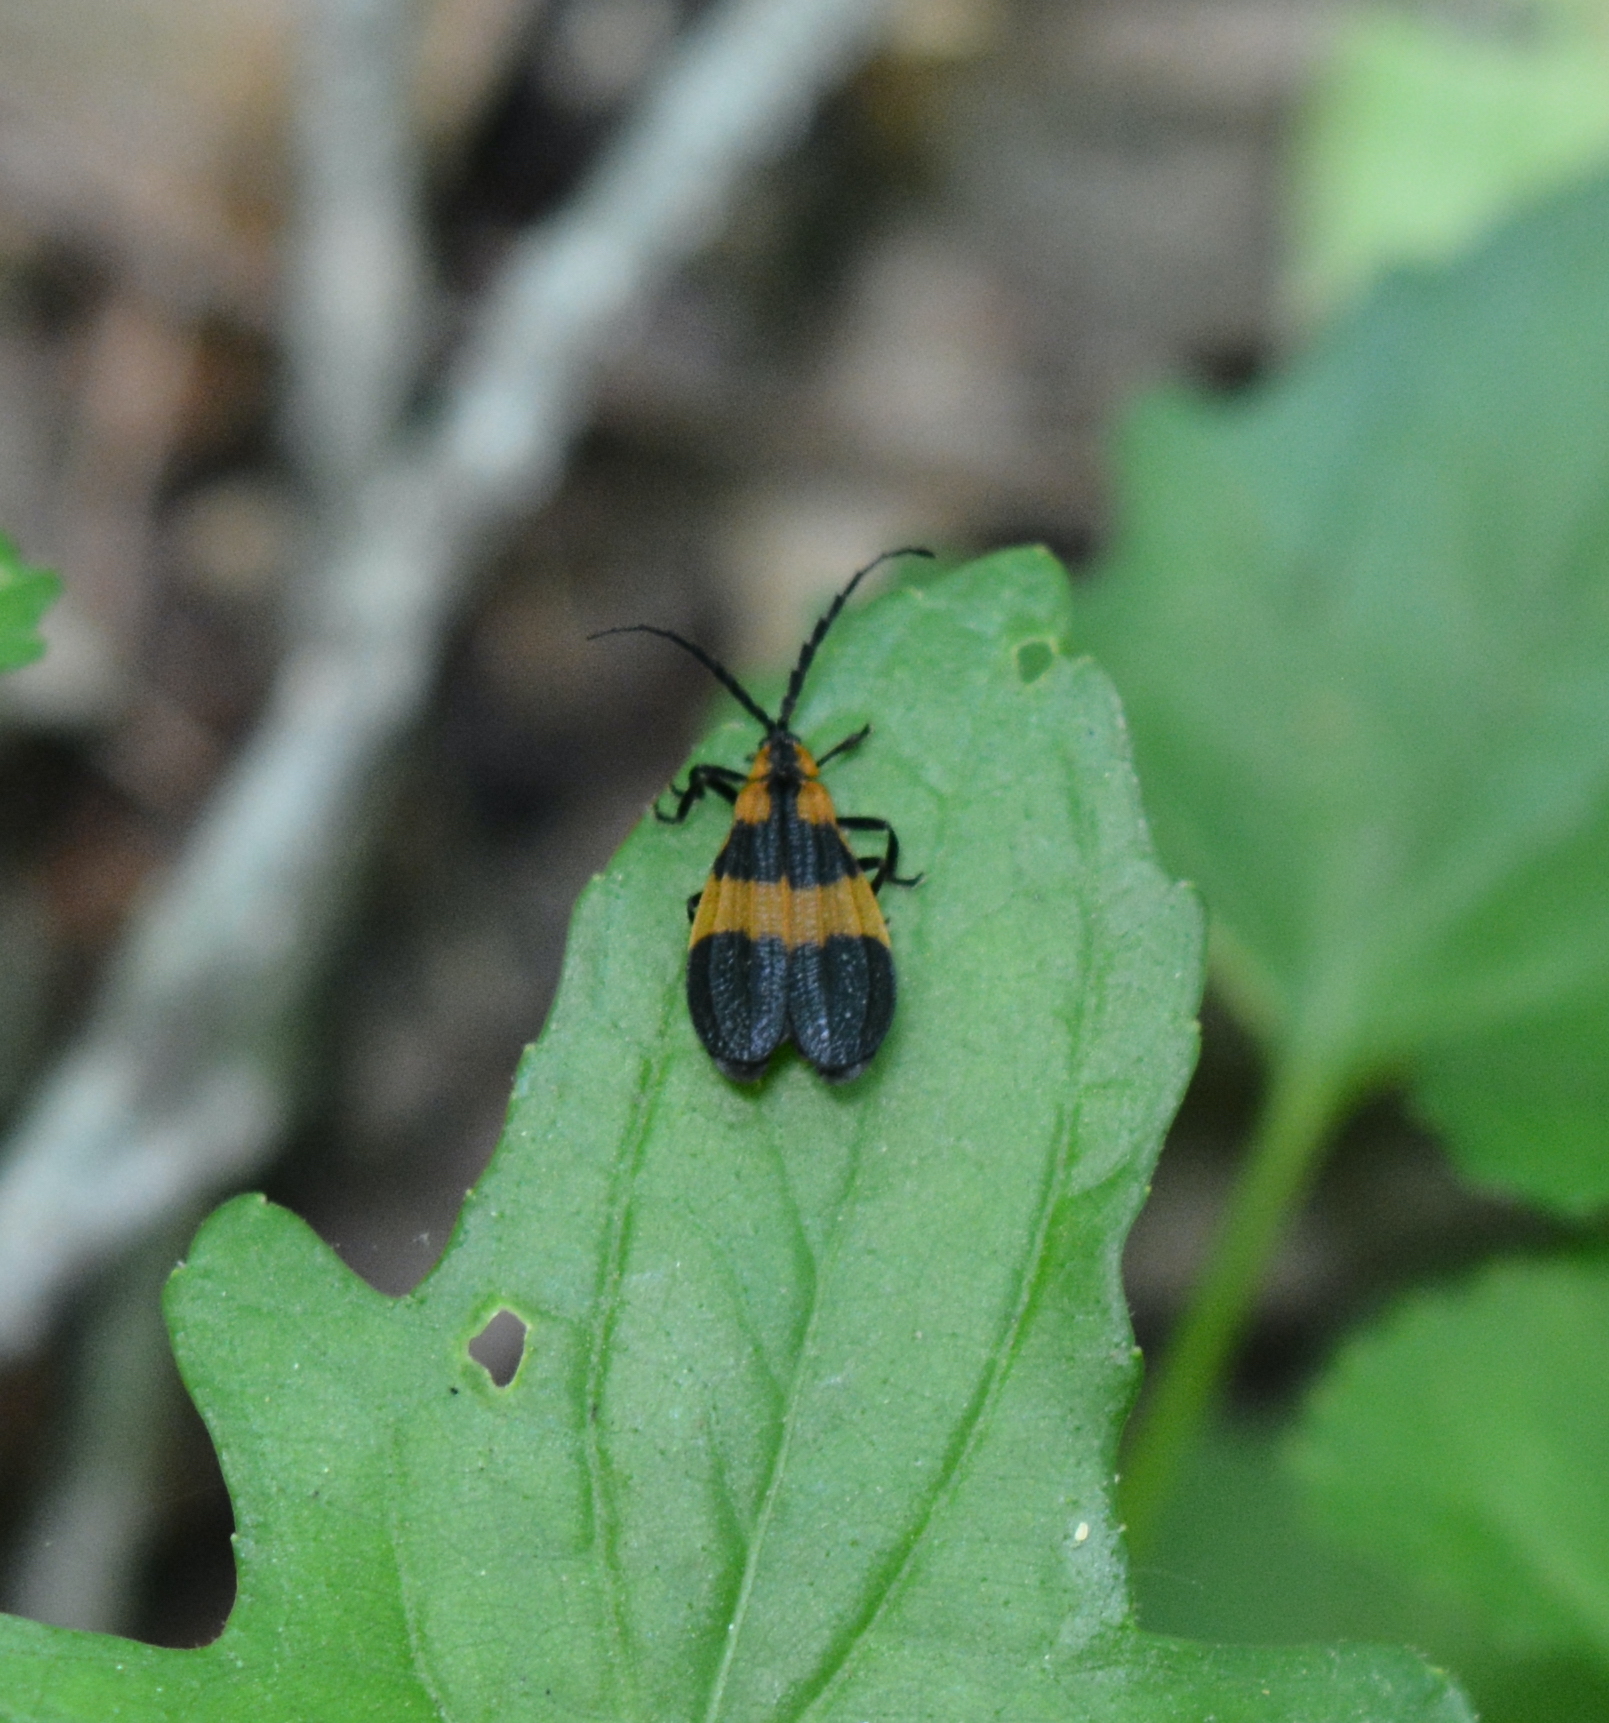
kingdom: Animalia
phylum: Arthropoda
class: Insecta
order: Coleoptera
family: Lycidae
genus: Calopteron
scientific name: Calopteron discrepans
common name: Banded net-winged beetle
